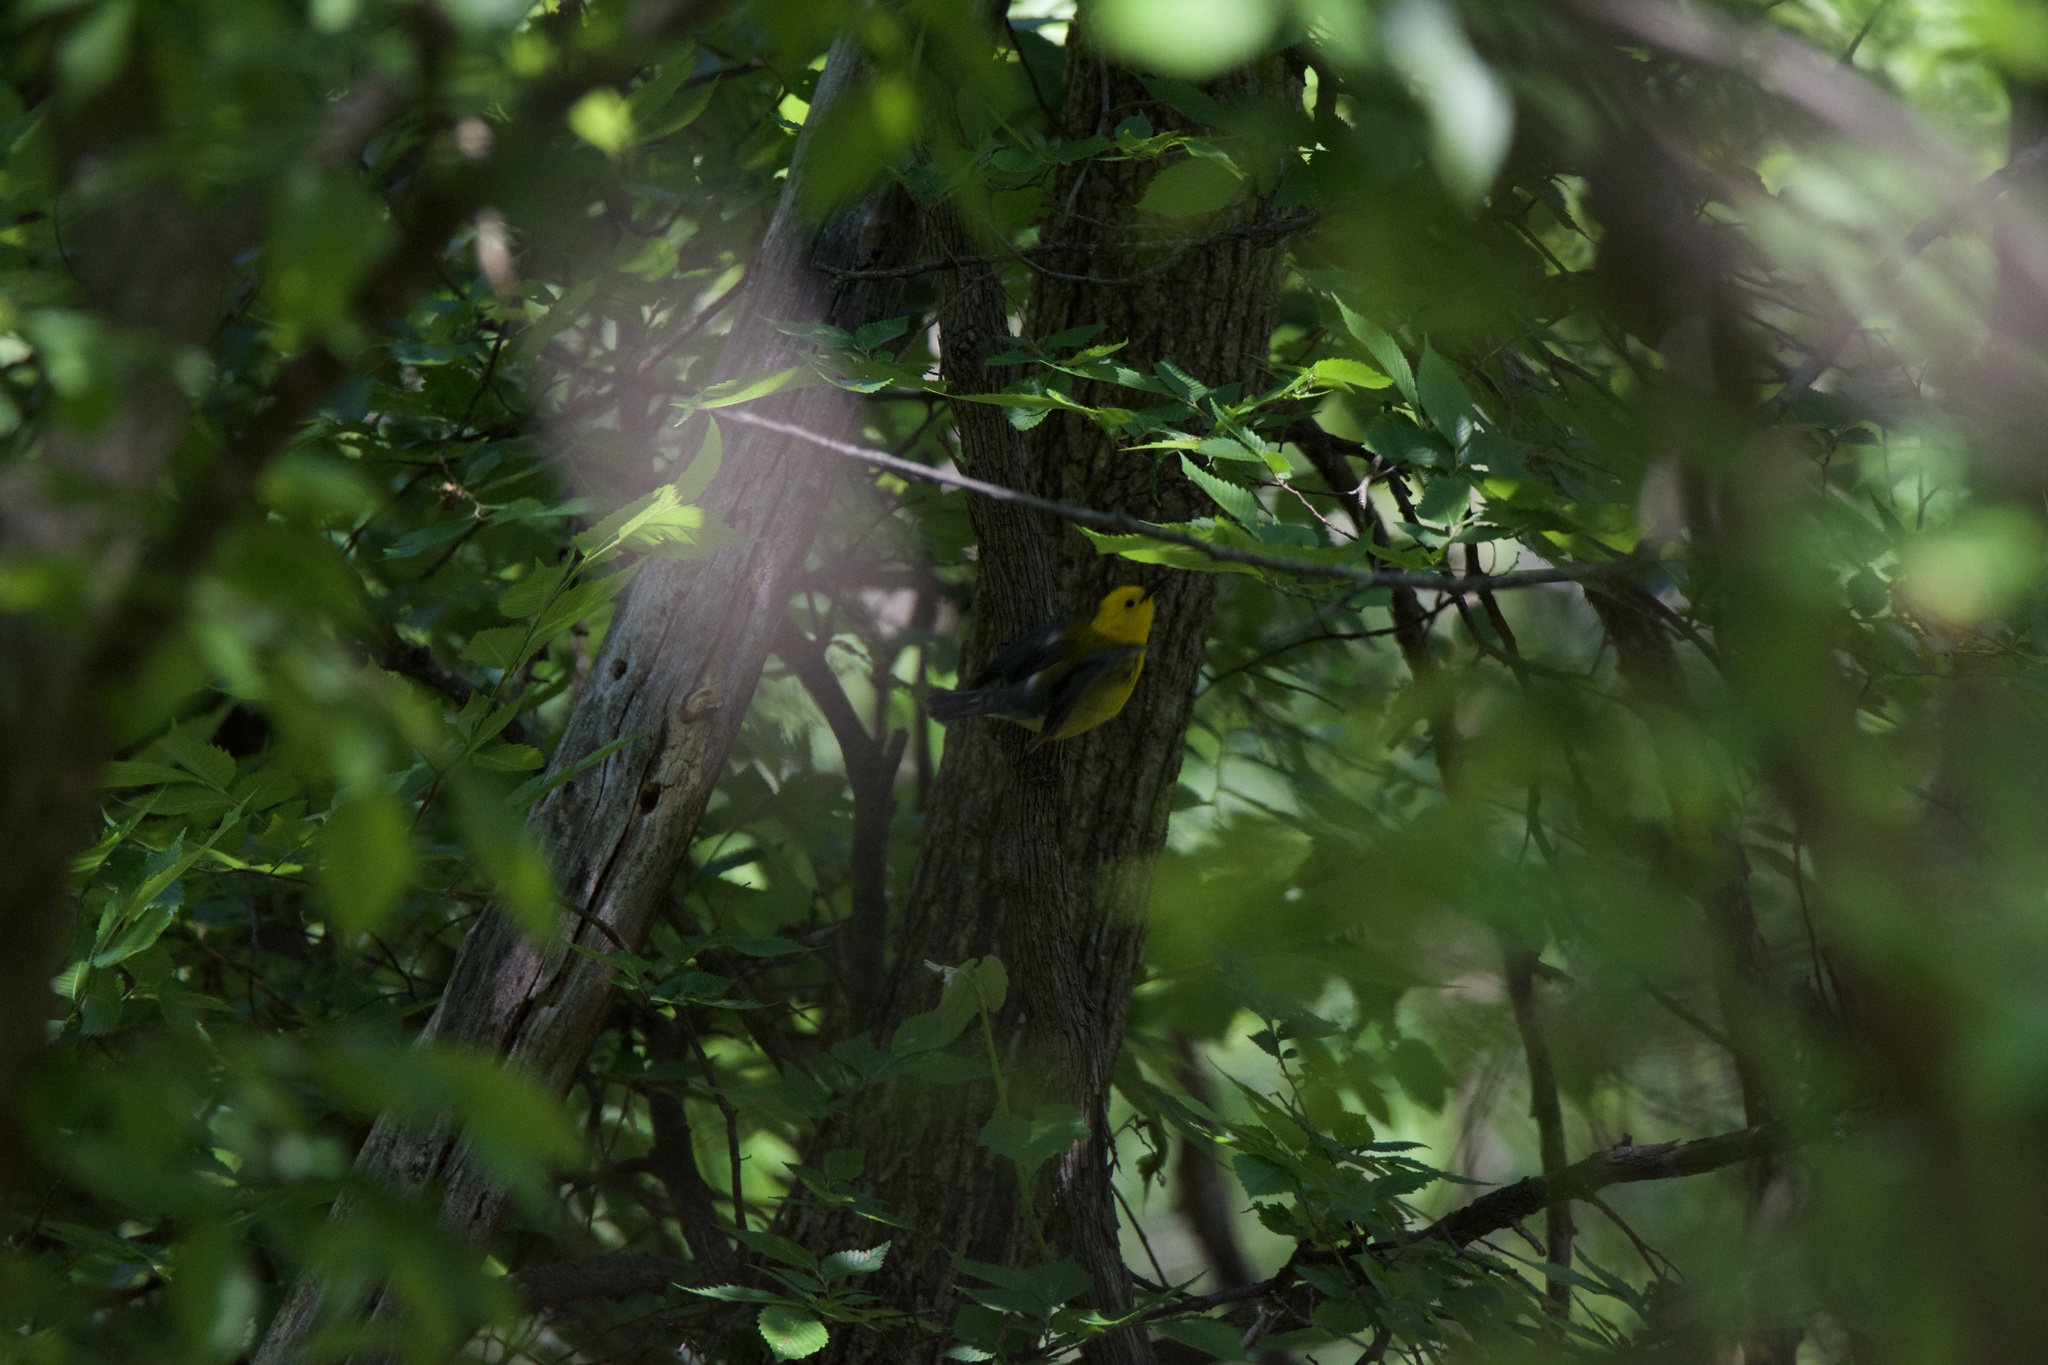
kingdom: Animalia
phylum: Chordata
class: Aves
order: Passeriformes
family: Parulidae
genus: Protonotaria
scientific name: Protonotaria citrea
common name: Prothonotary warbler
